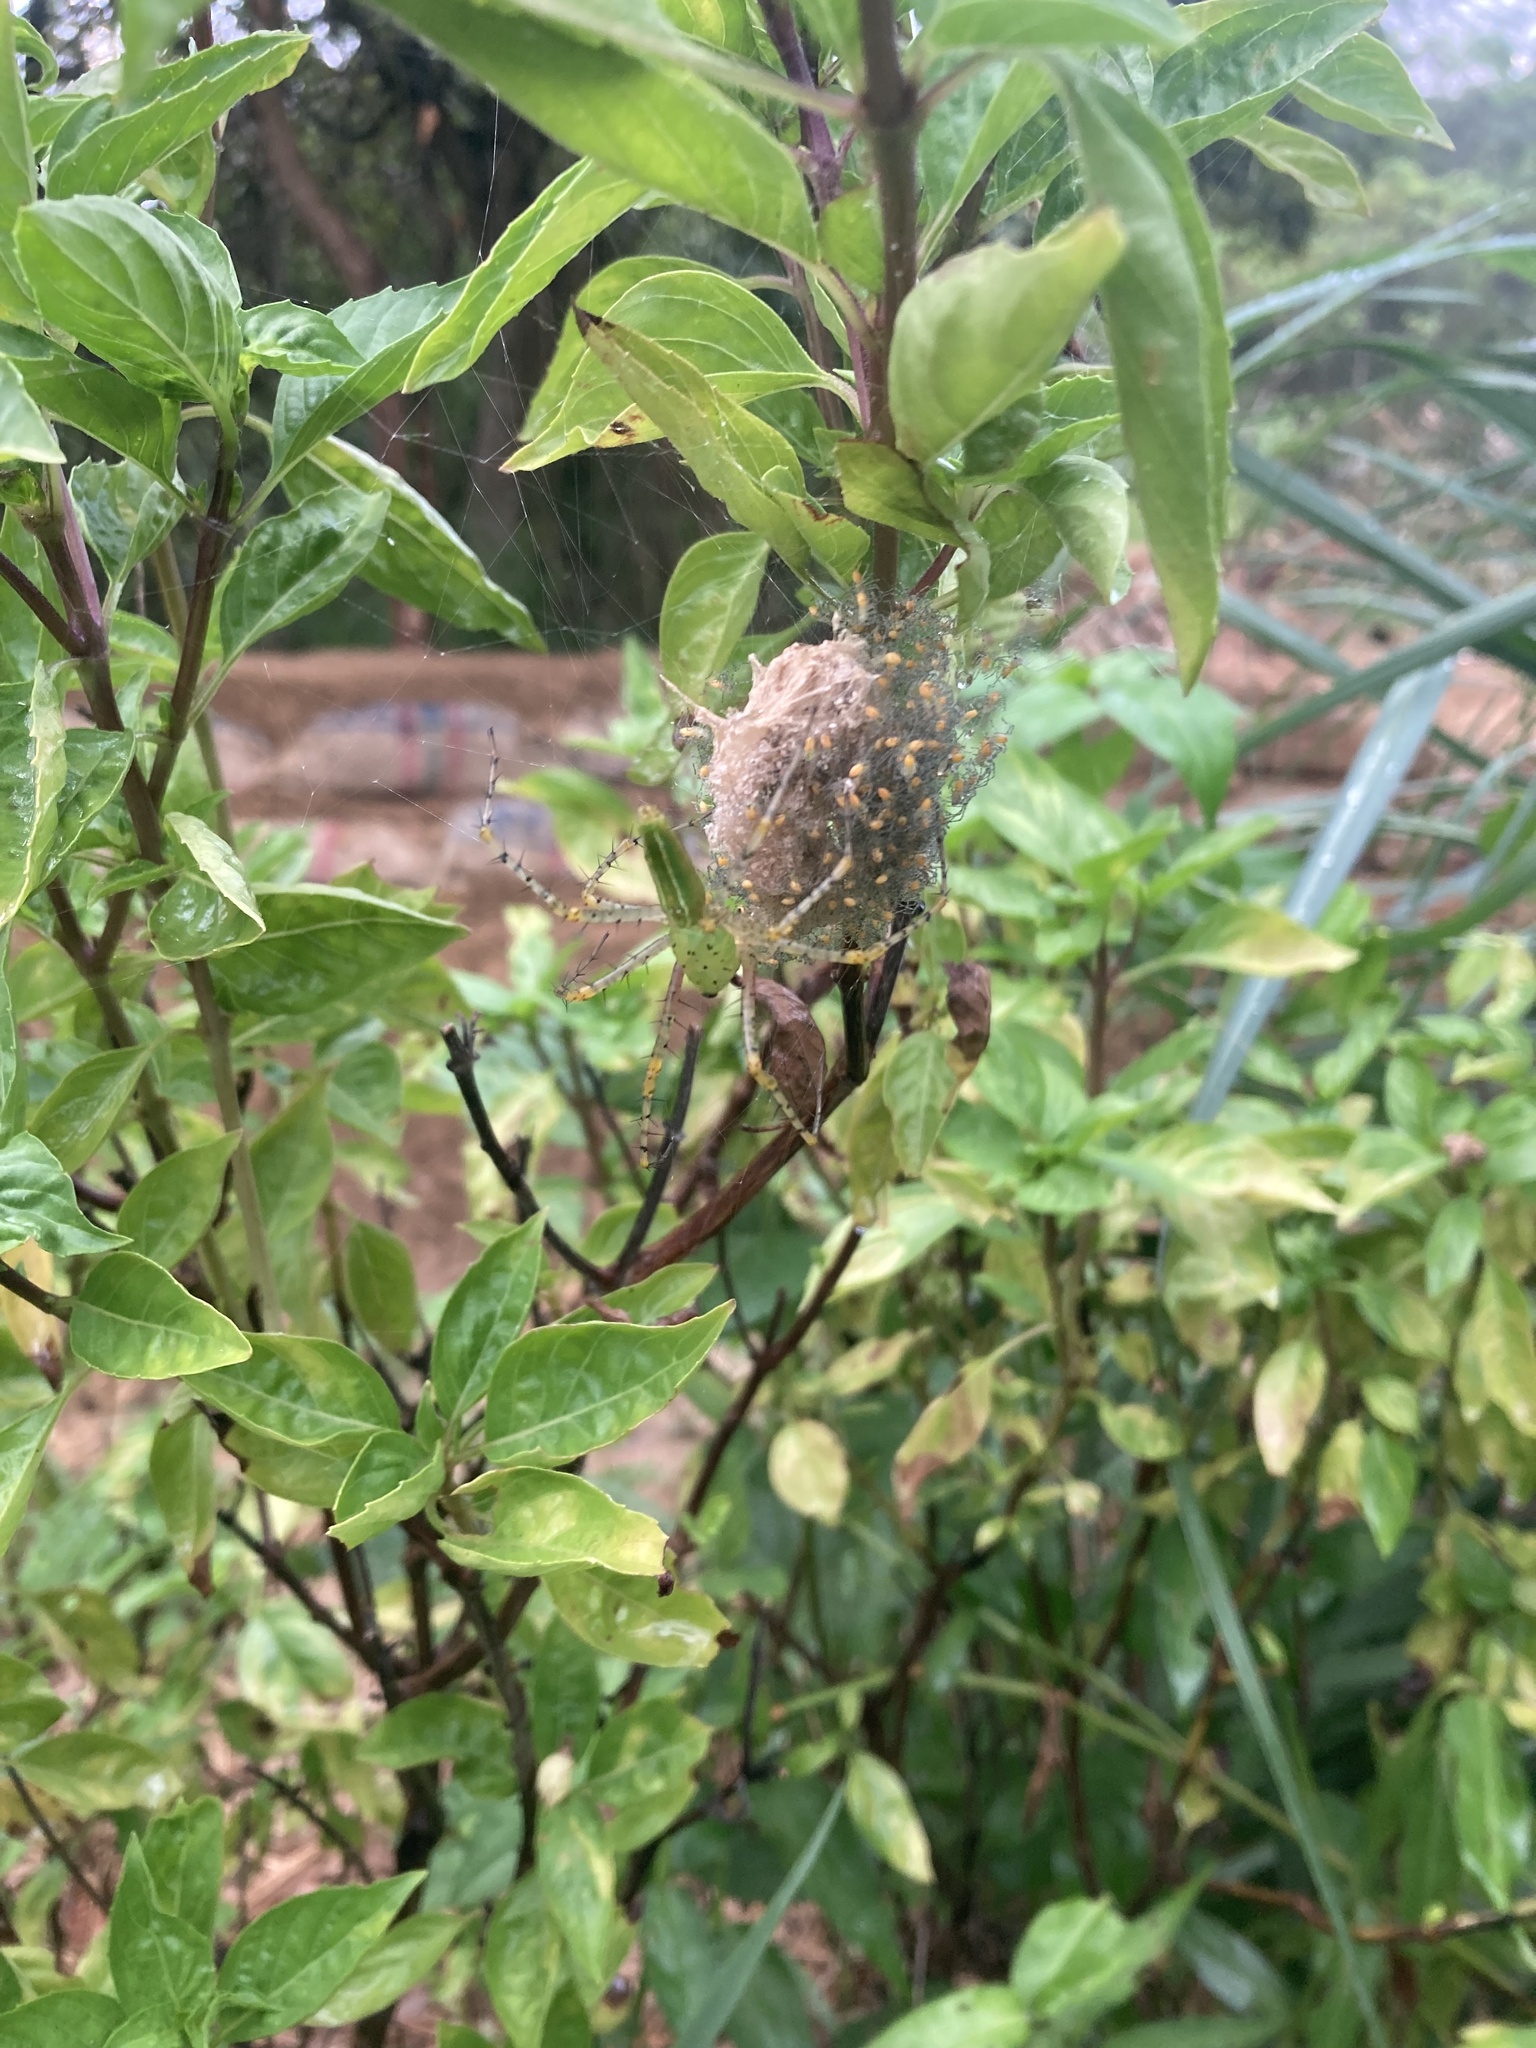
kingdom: Animalia
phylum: Arthropoda
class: Arachnida
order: Araneae
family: Oxyopidae
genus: Peucetia
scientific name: Peucetia formosensis
